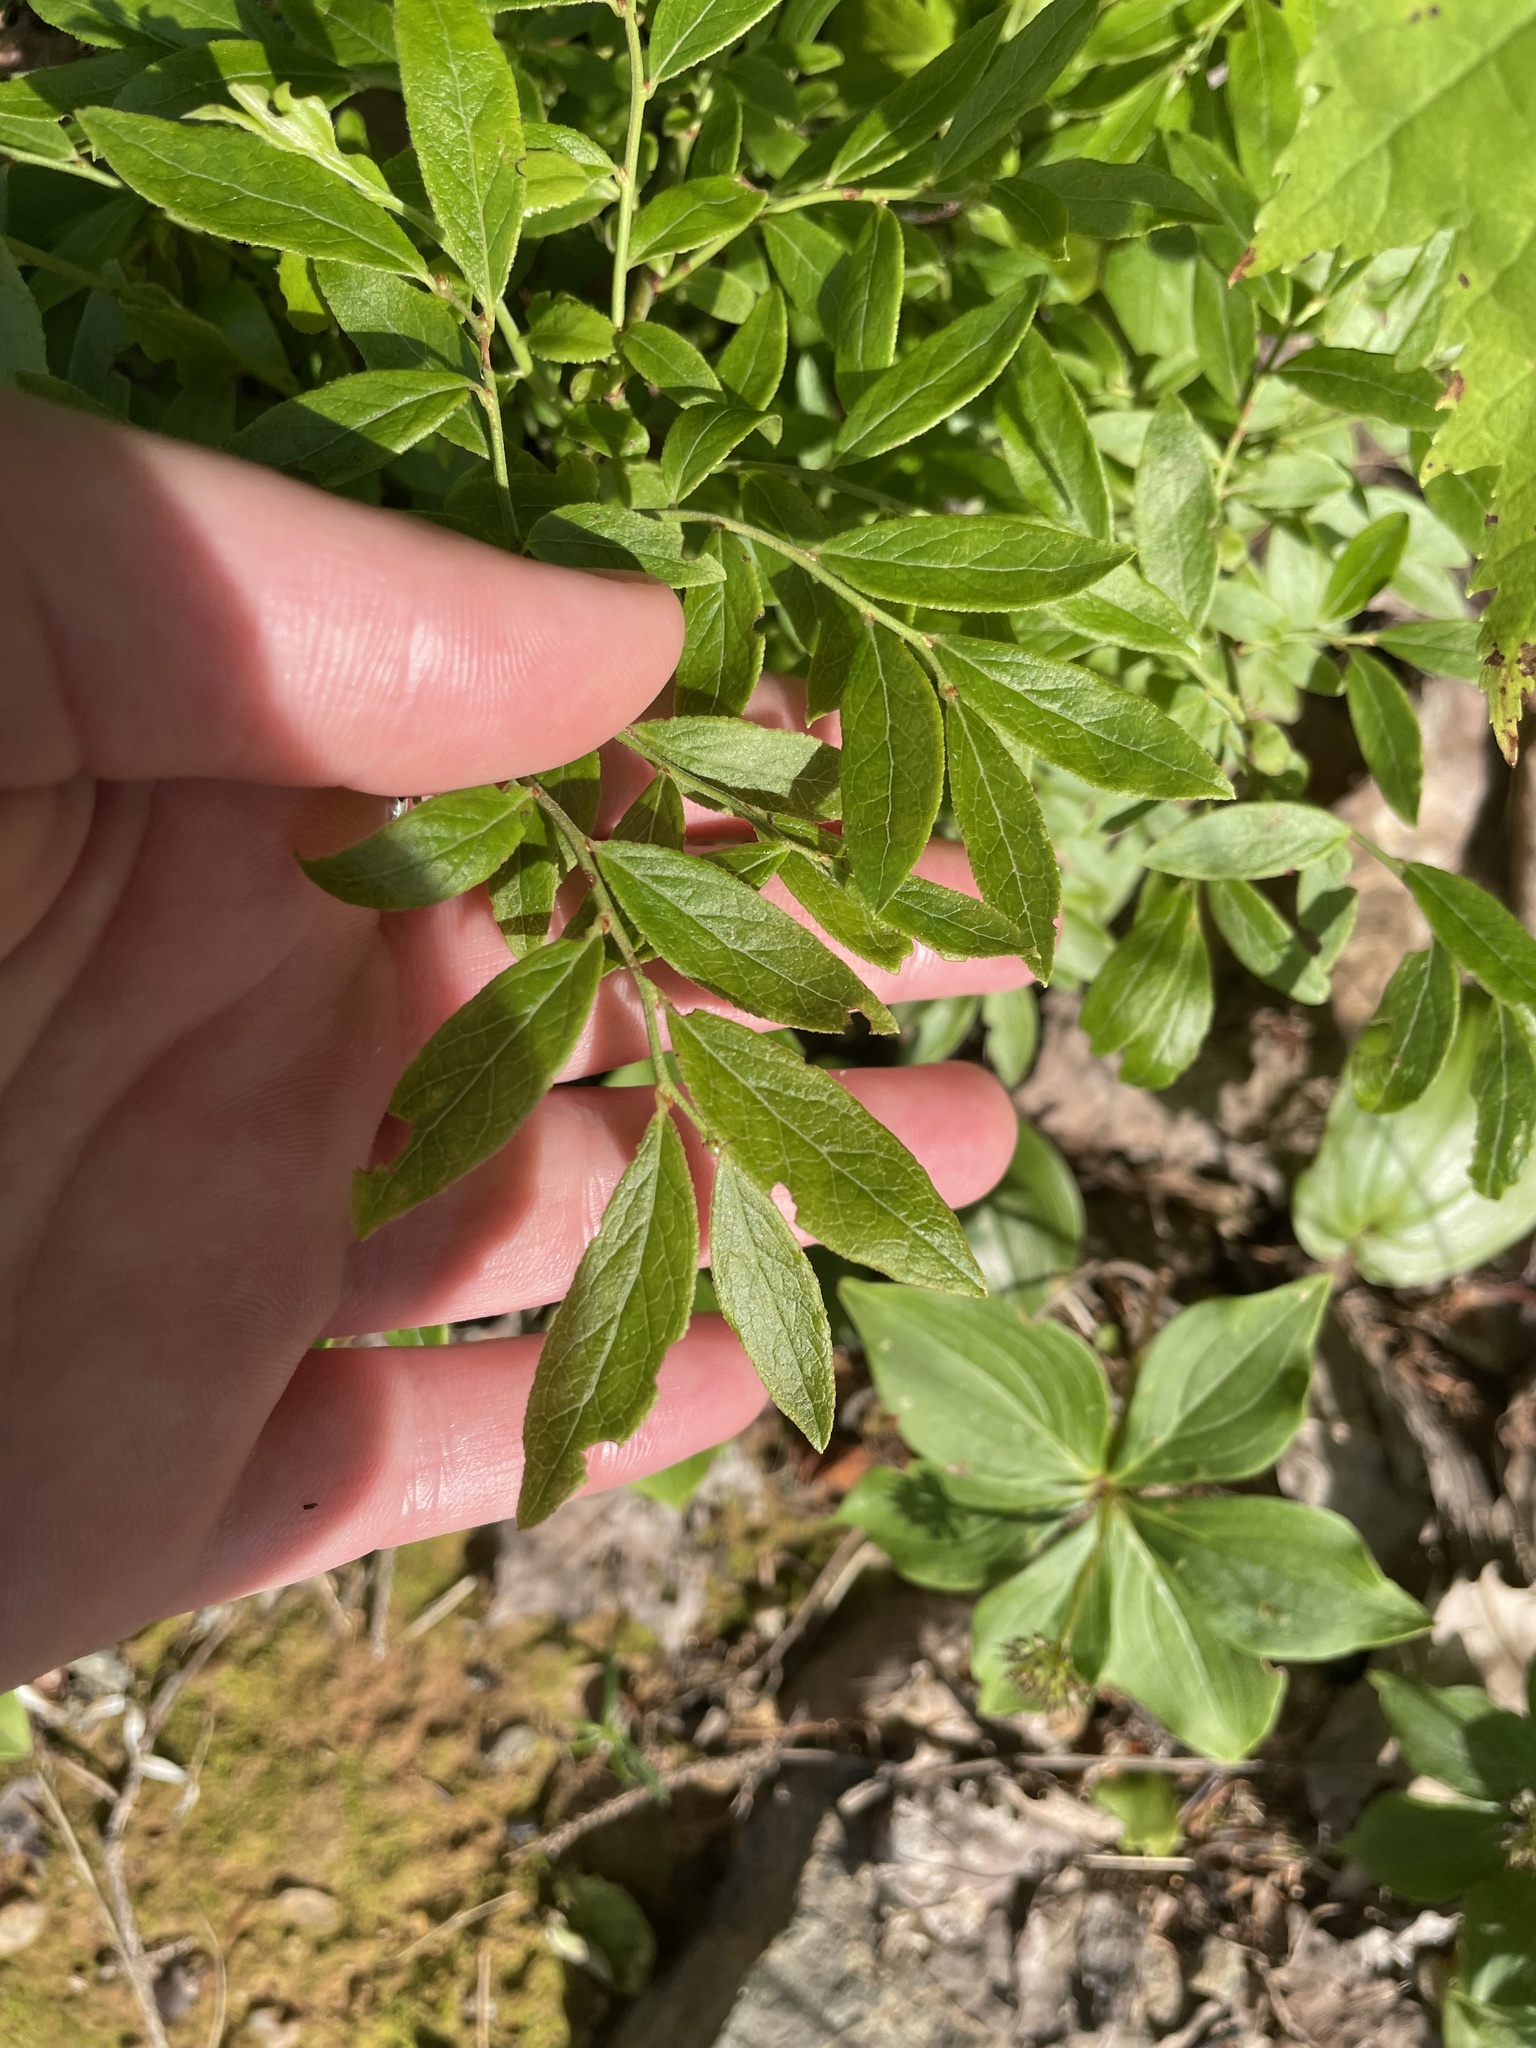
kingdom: Plantae
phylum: Tracheophyta
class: Magnoliopsida
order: Ericales
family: Ericaceae
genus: Vaccinium
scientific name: Vaccinium angustifolium
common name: Early lowbush blueberry
